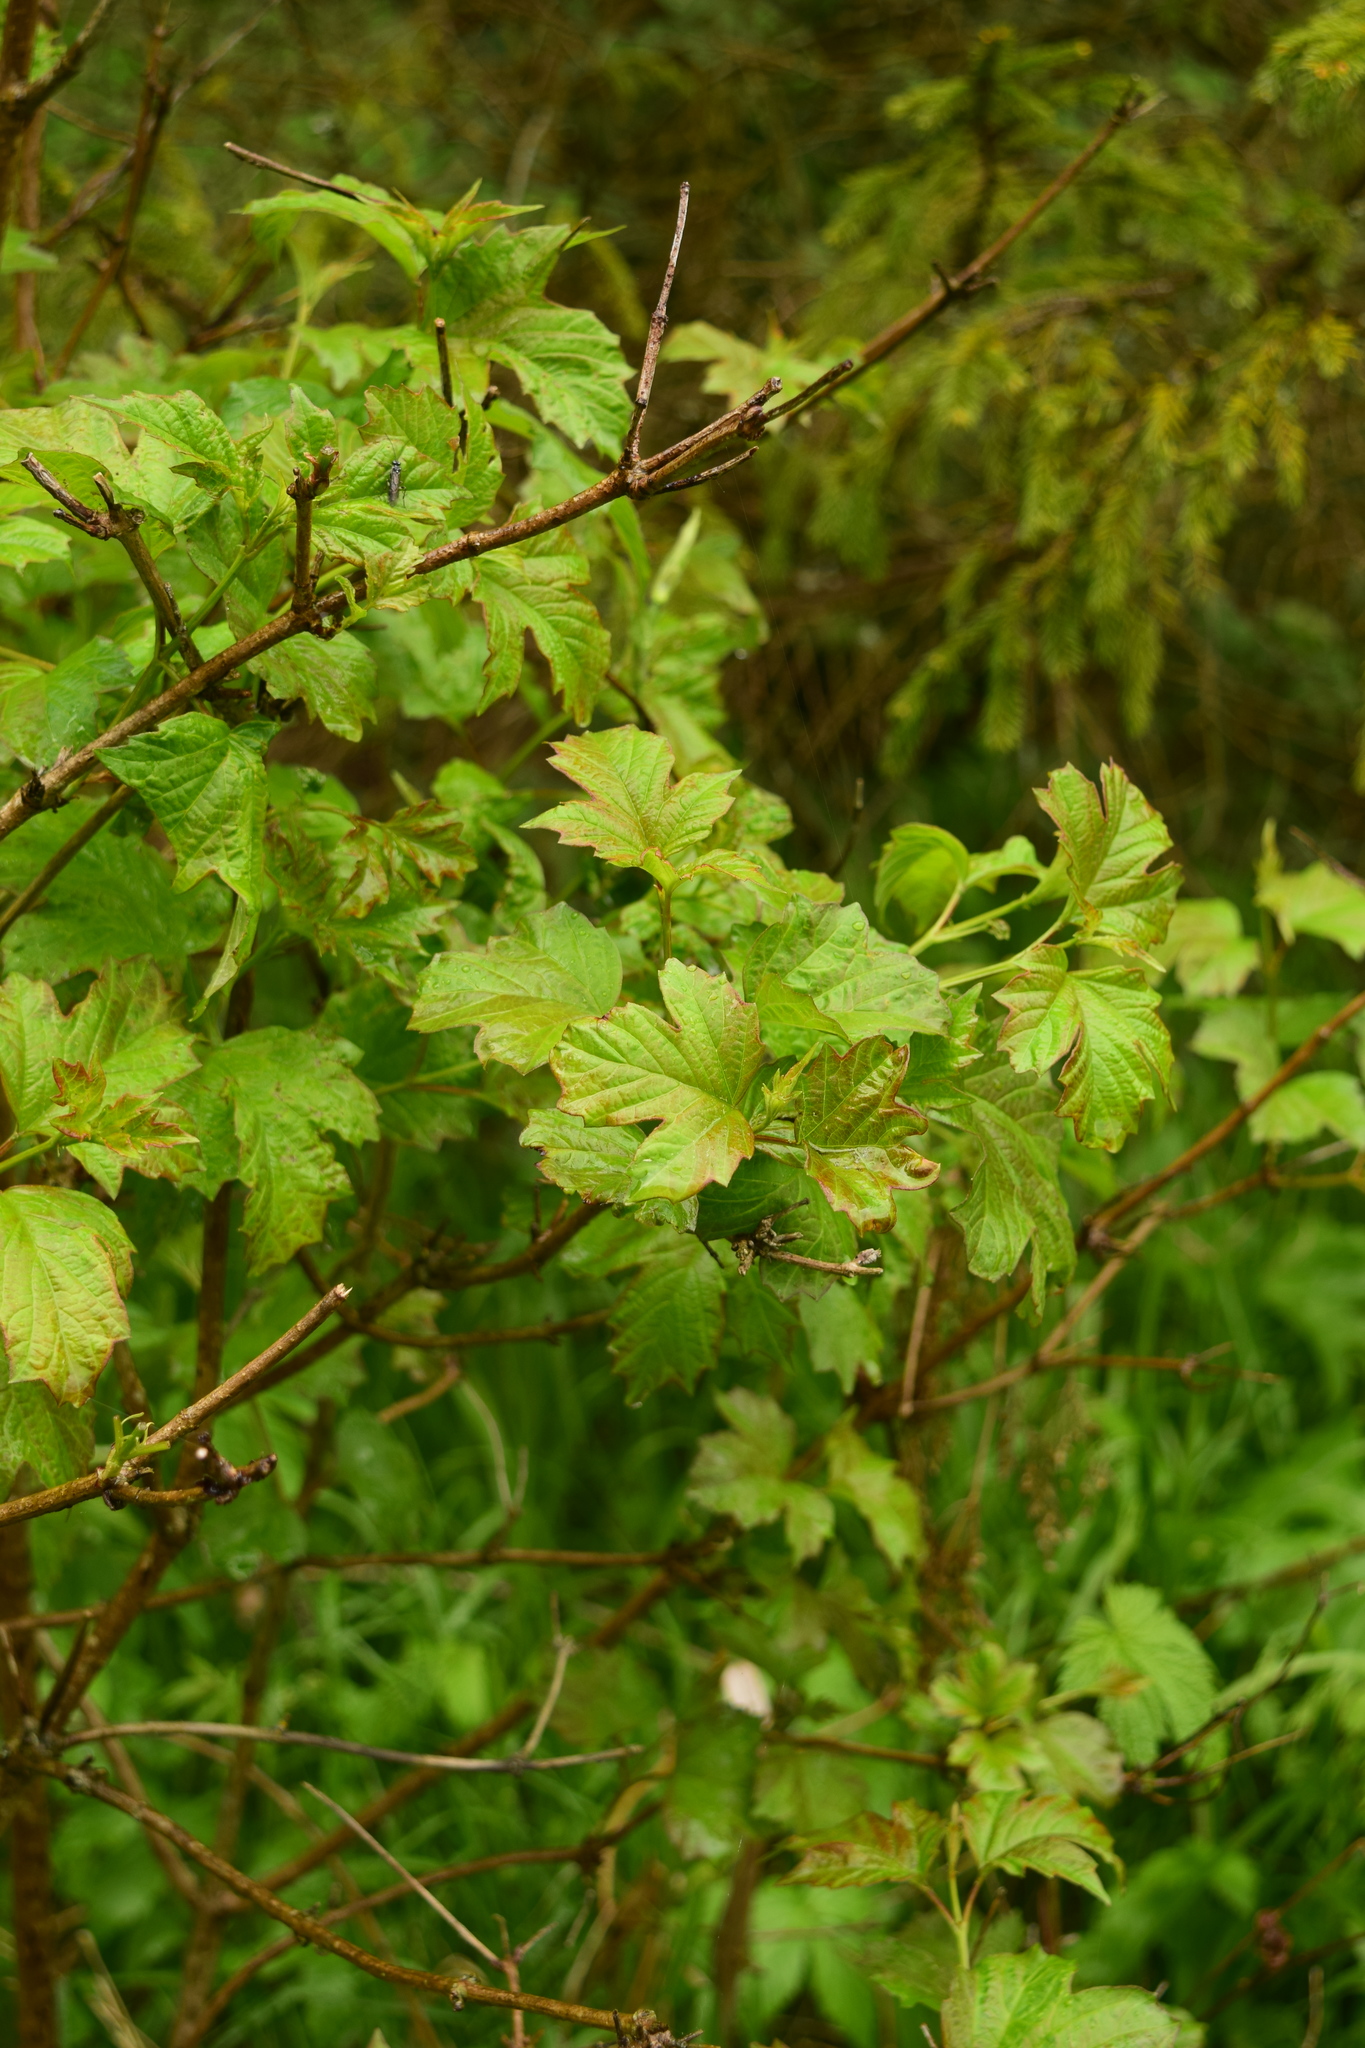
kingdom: Plantae
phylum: Tracheophyta
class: Magnoliopsida
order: Dipsacales
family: Viburnaceae
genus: Viburnum
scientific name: Viburnum opulus
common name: Guelder-rose
